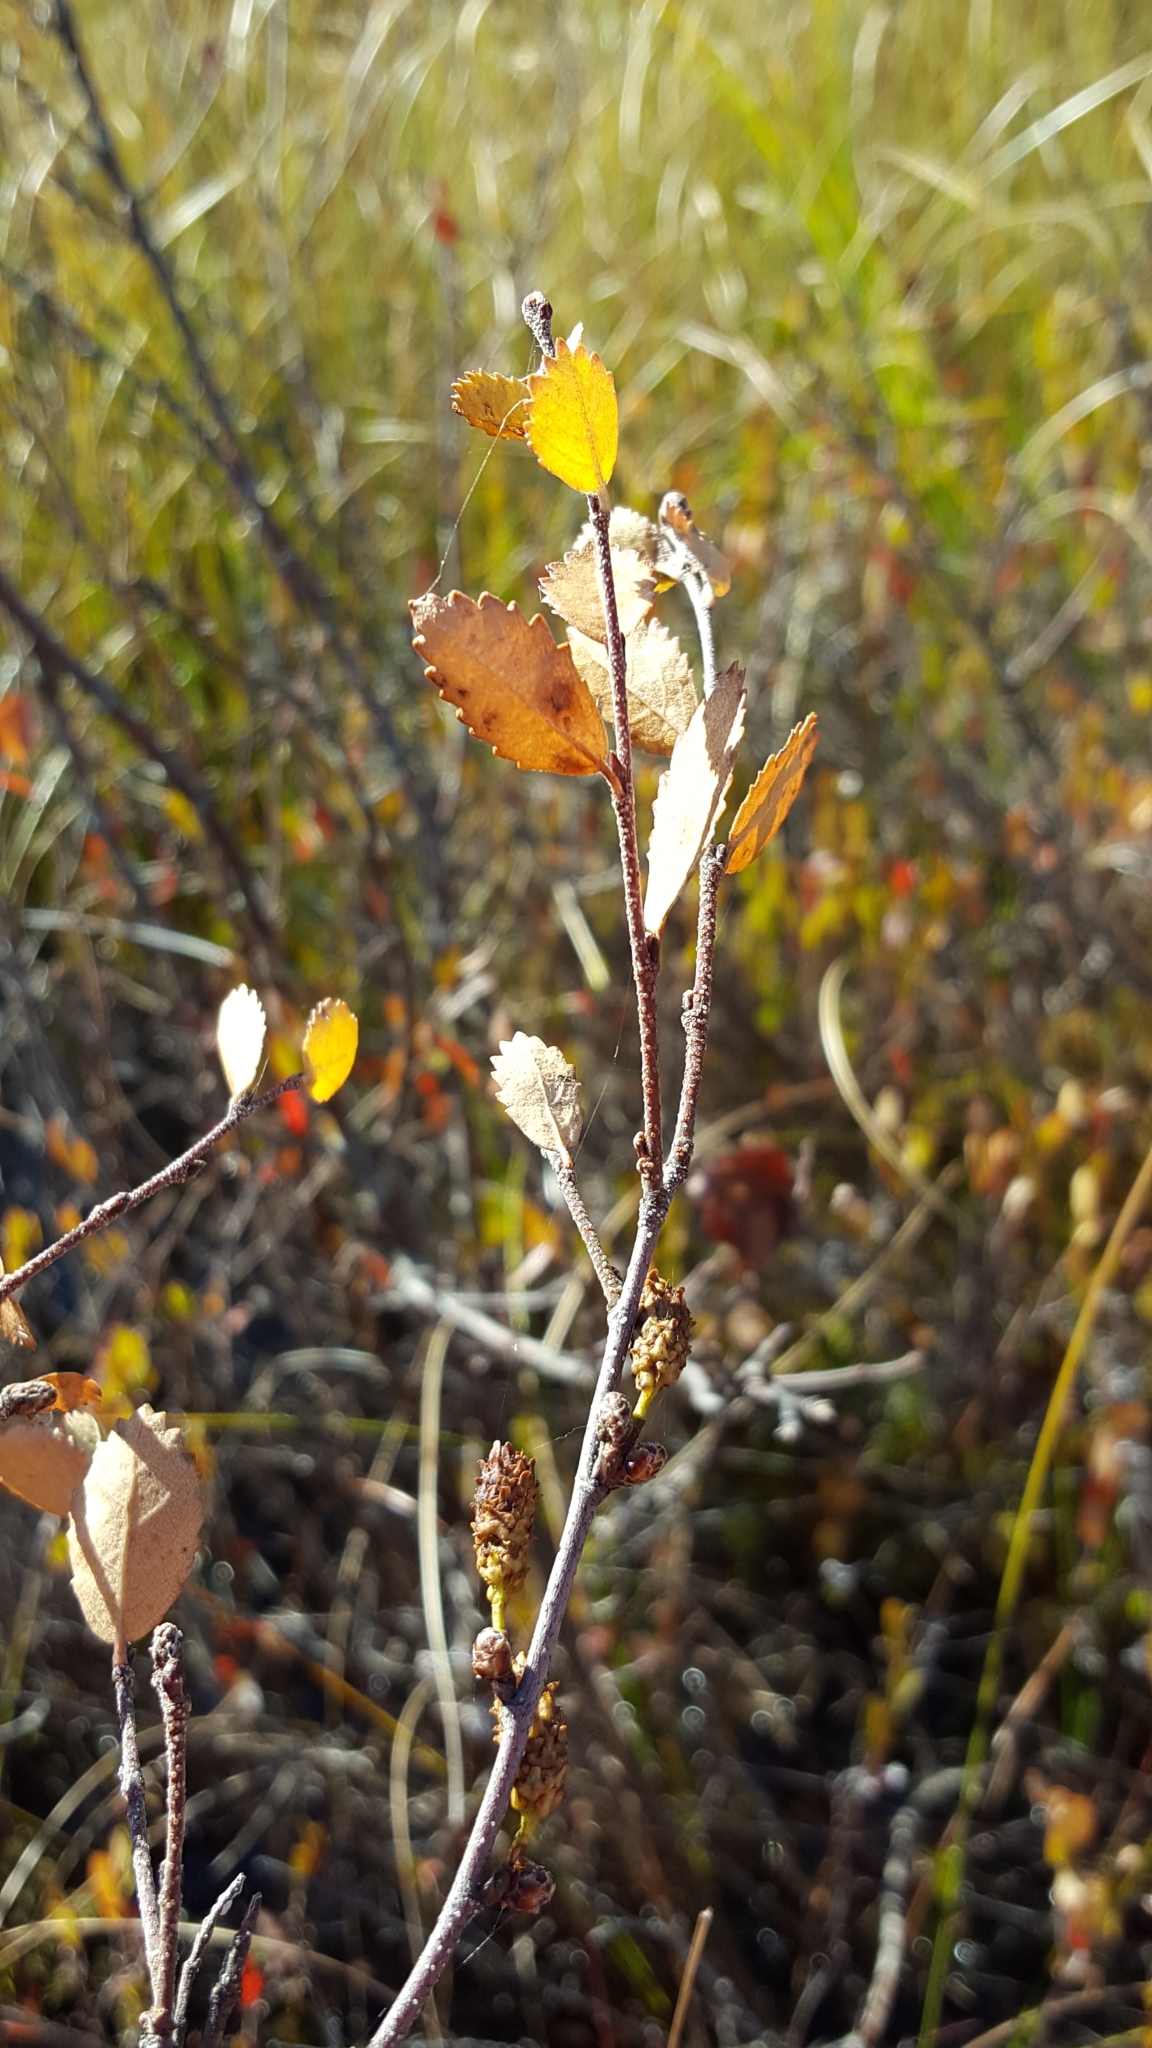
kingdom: Plantae
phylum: Tracheophyta
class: Magnoliopsida
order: Fagales
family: Betulaceae
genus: Betula
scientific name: Betula pumila
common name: Bog birch
